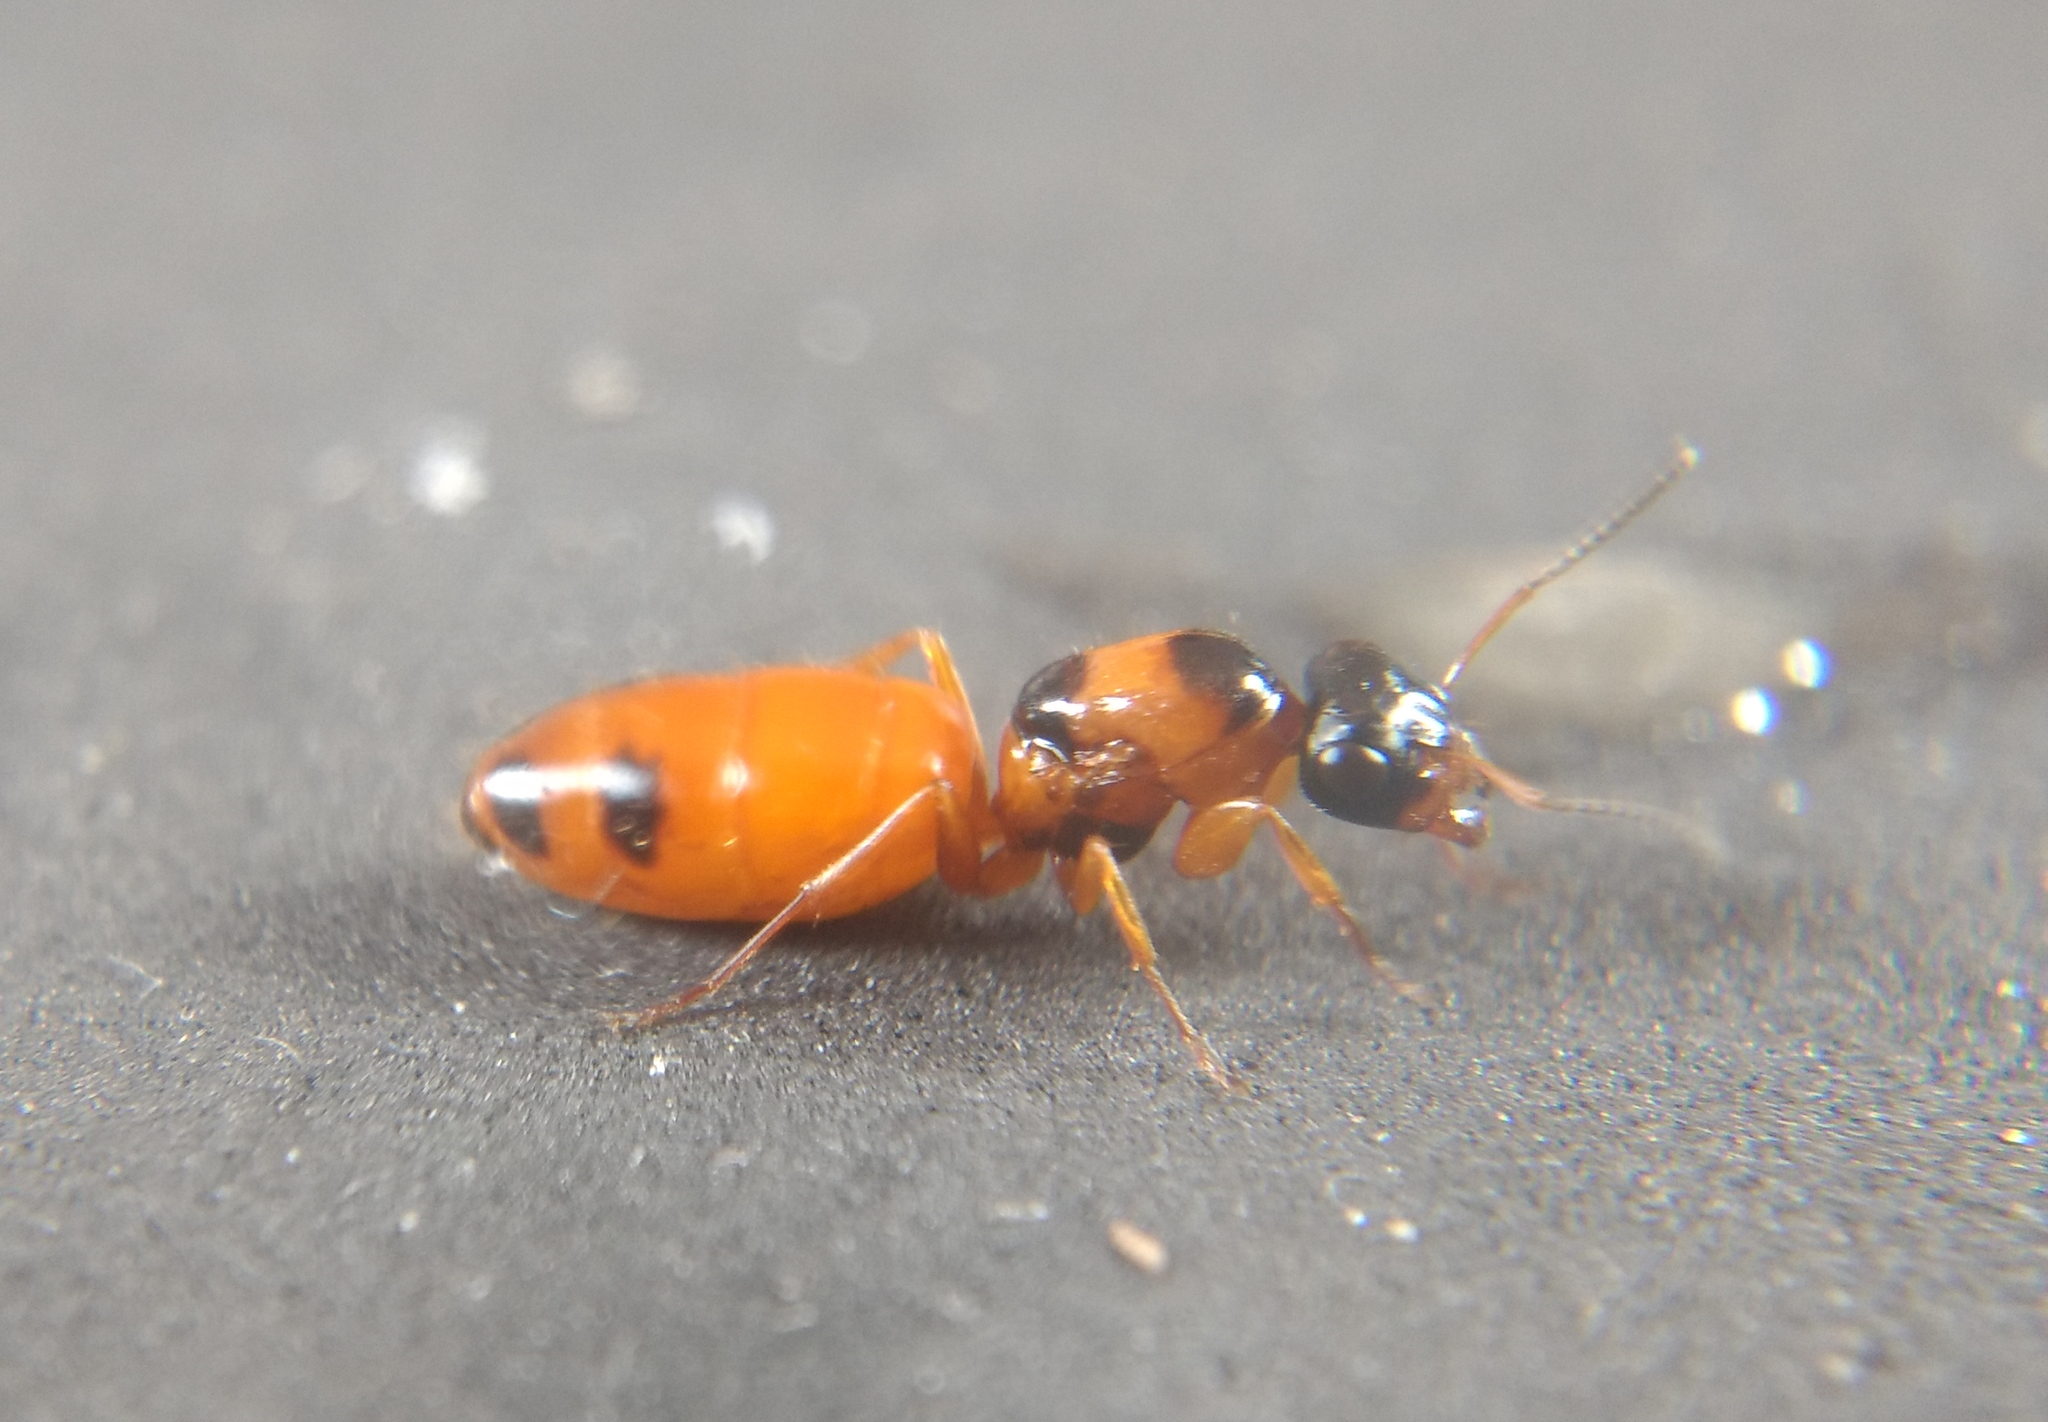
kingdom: Animalia
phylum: Arthropoda
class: Insecta
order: Hymenoptera
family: Formicidae
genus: Opisthopsis
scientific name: Opisthopsis rufithorax
